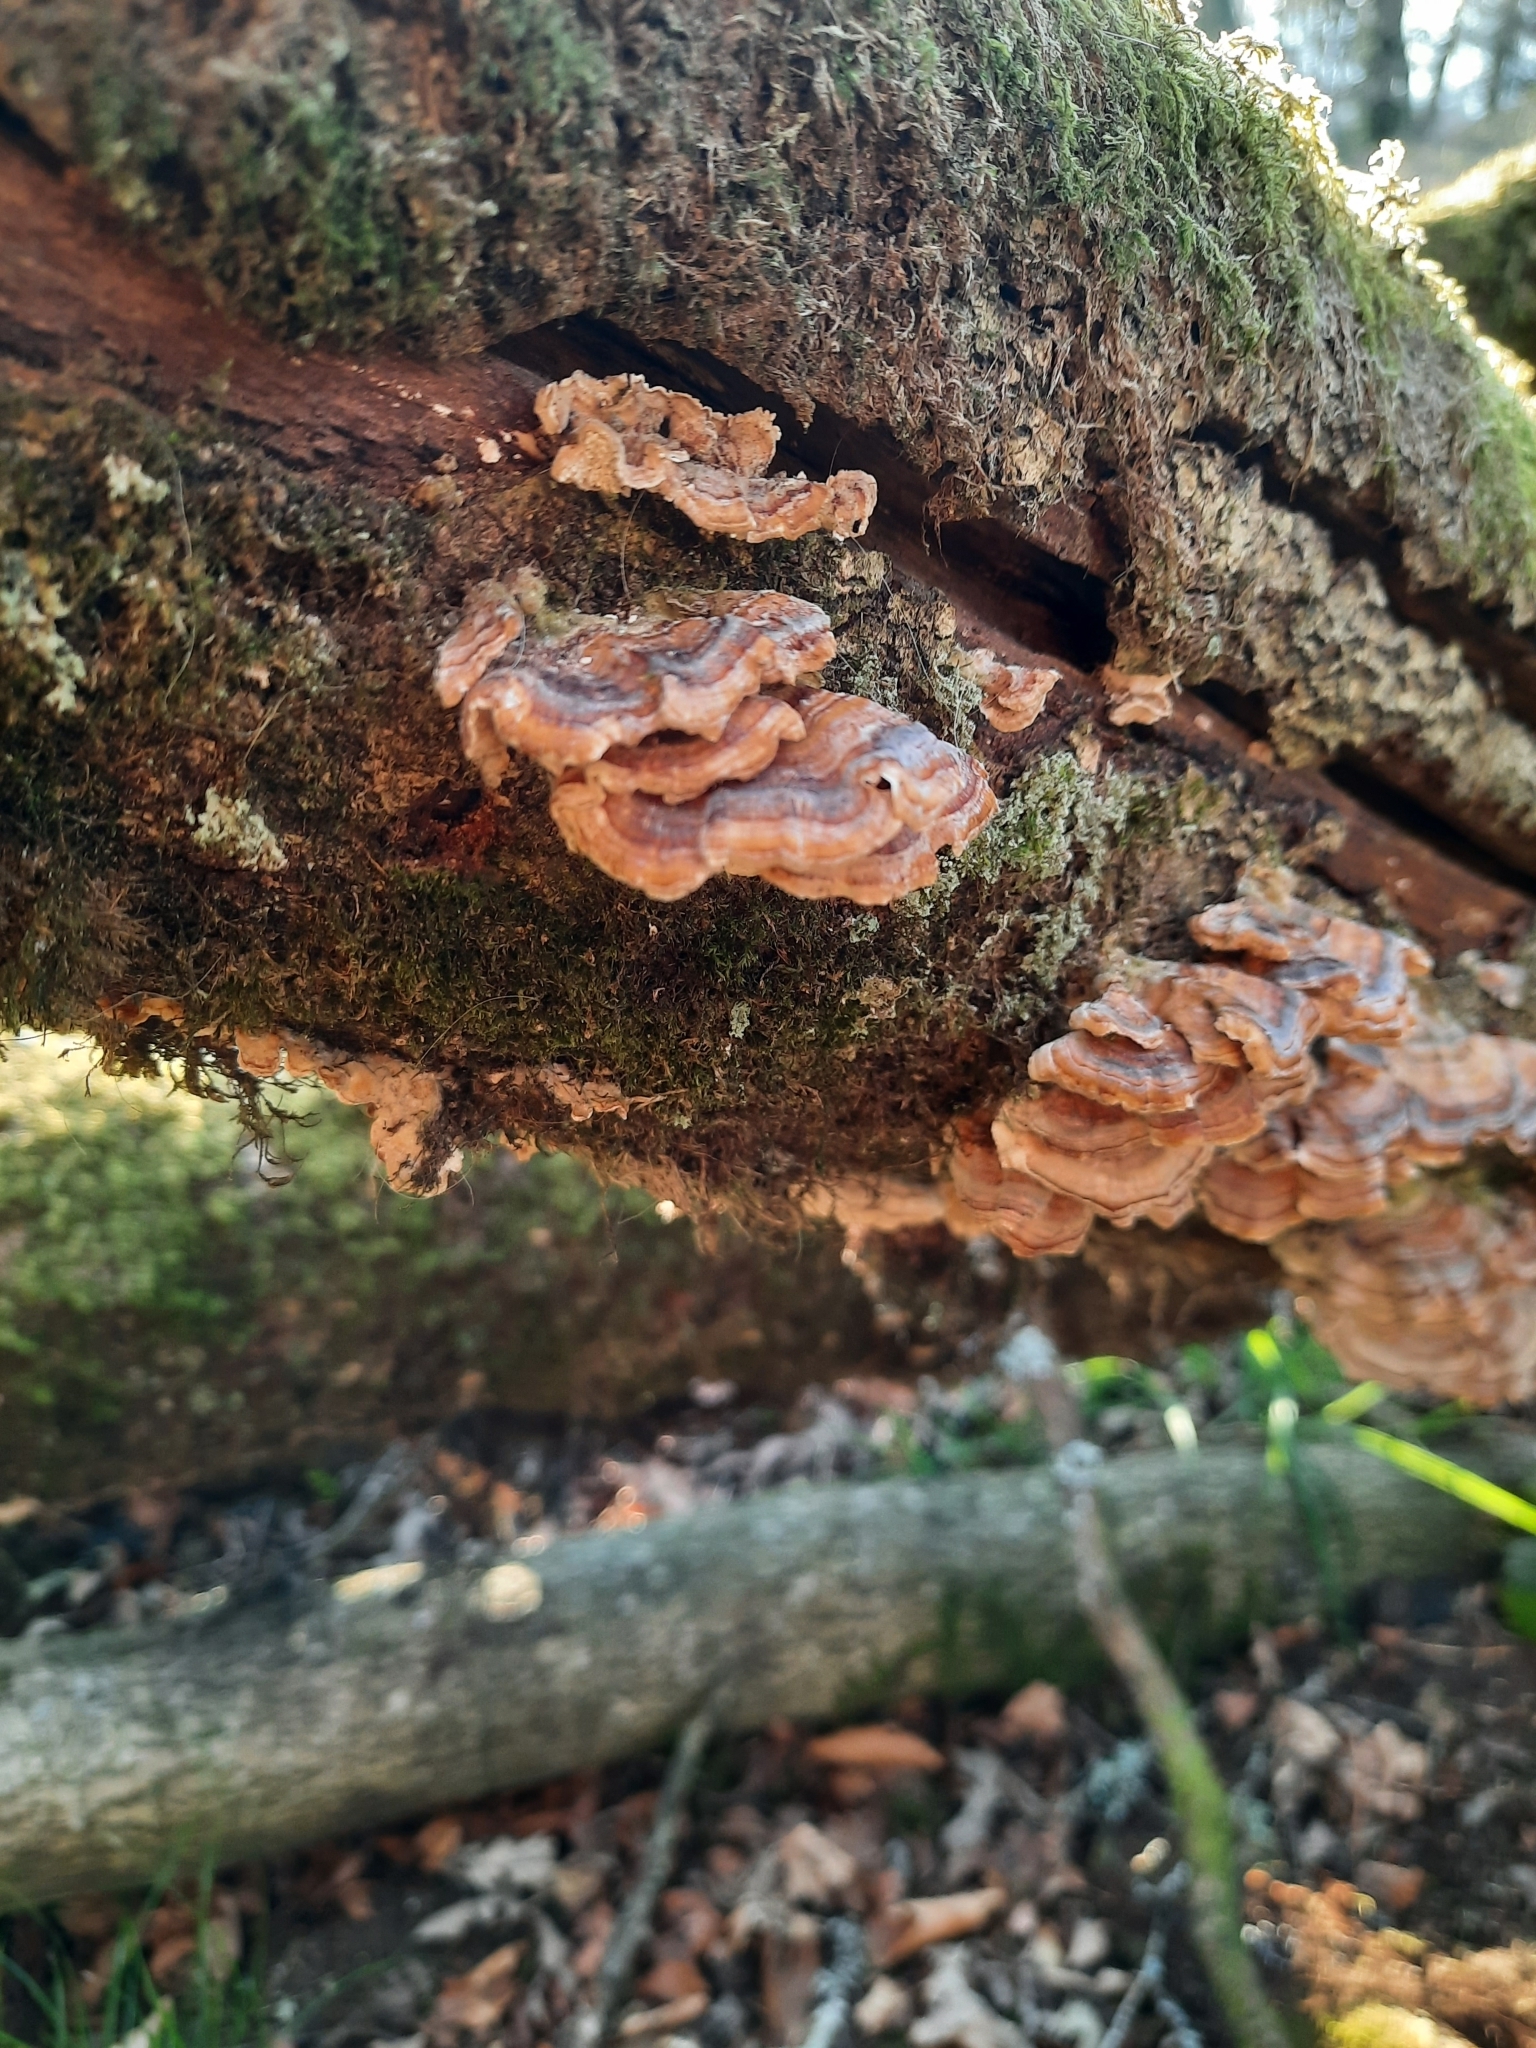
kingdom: Fungi
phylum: Basidiomycota
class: Agaricomycetes
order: Polyporales
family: Polyporaceae
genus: Trametes
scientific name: Trametes versicolor
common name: Turkeytail
